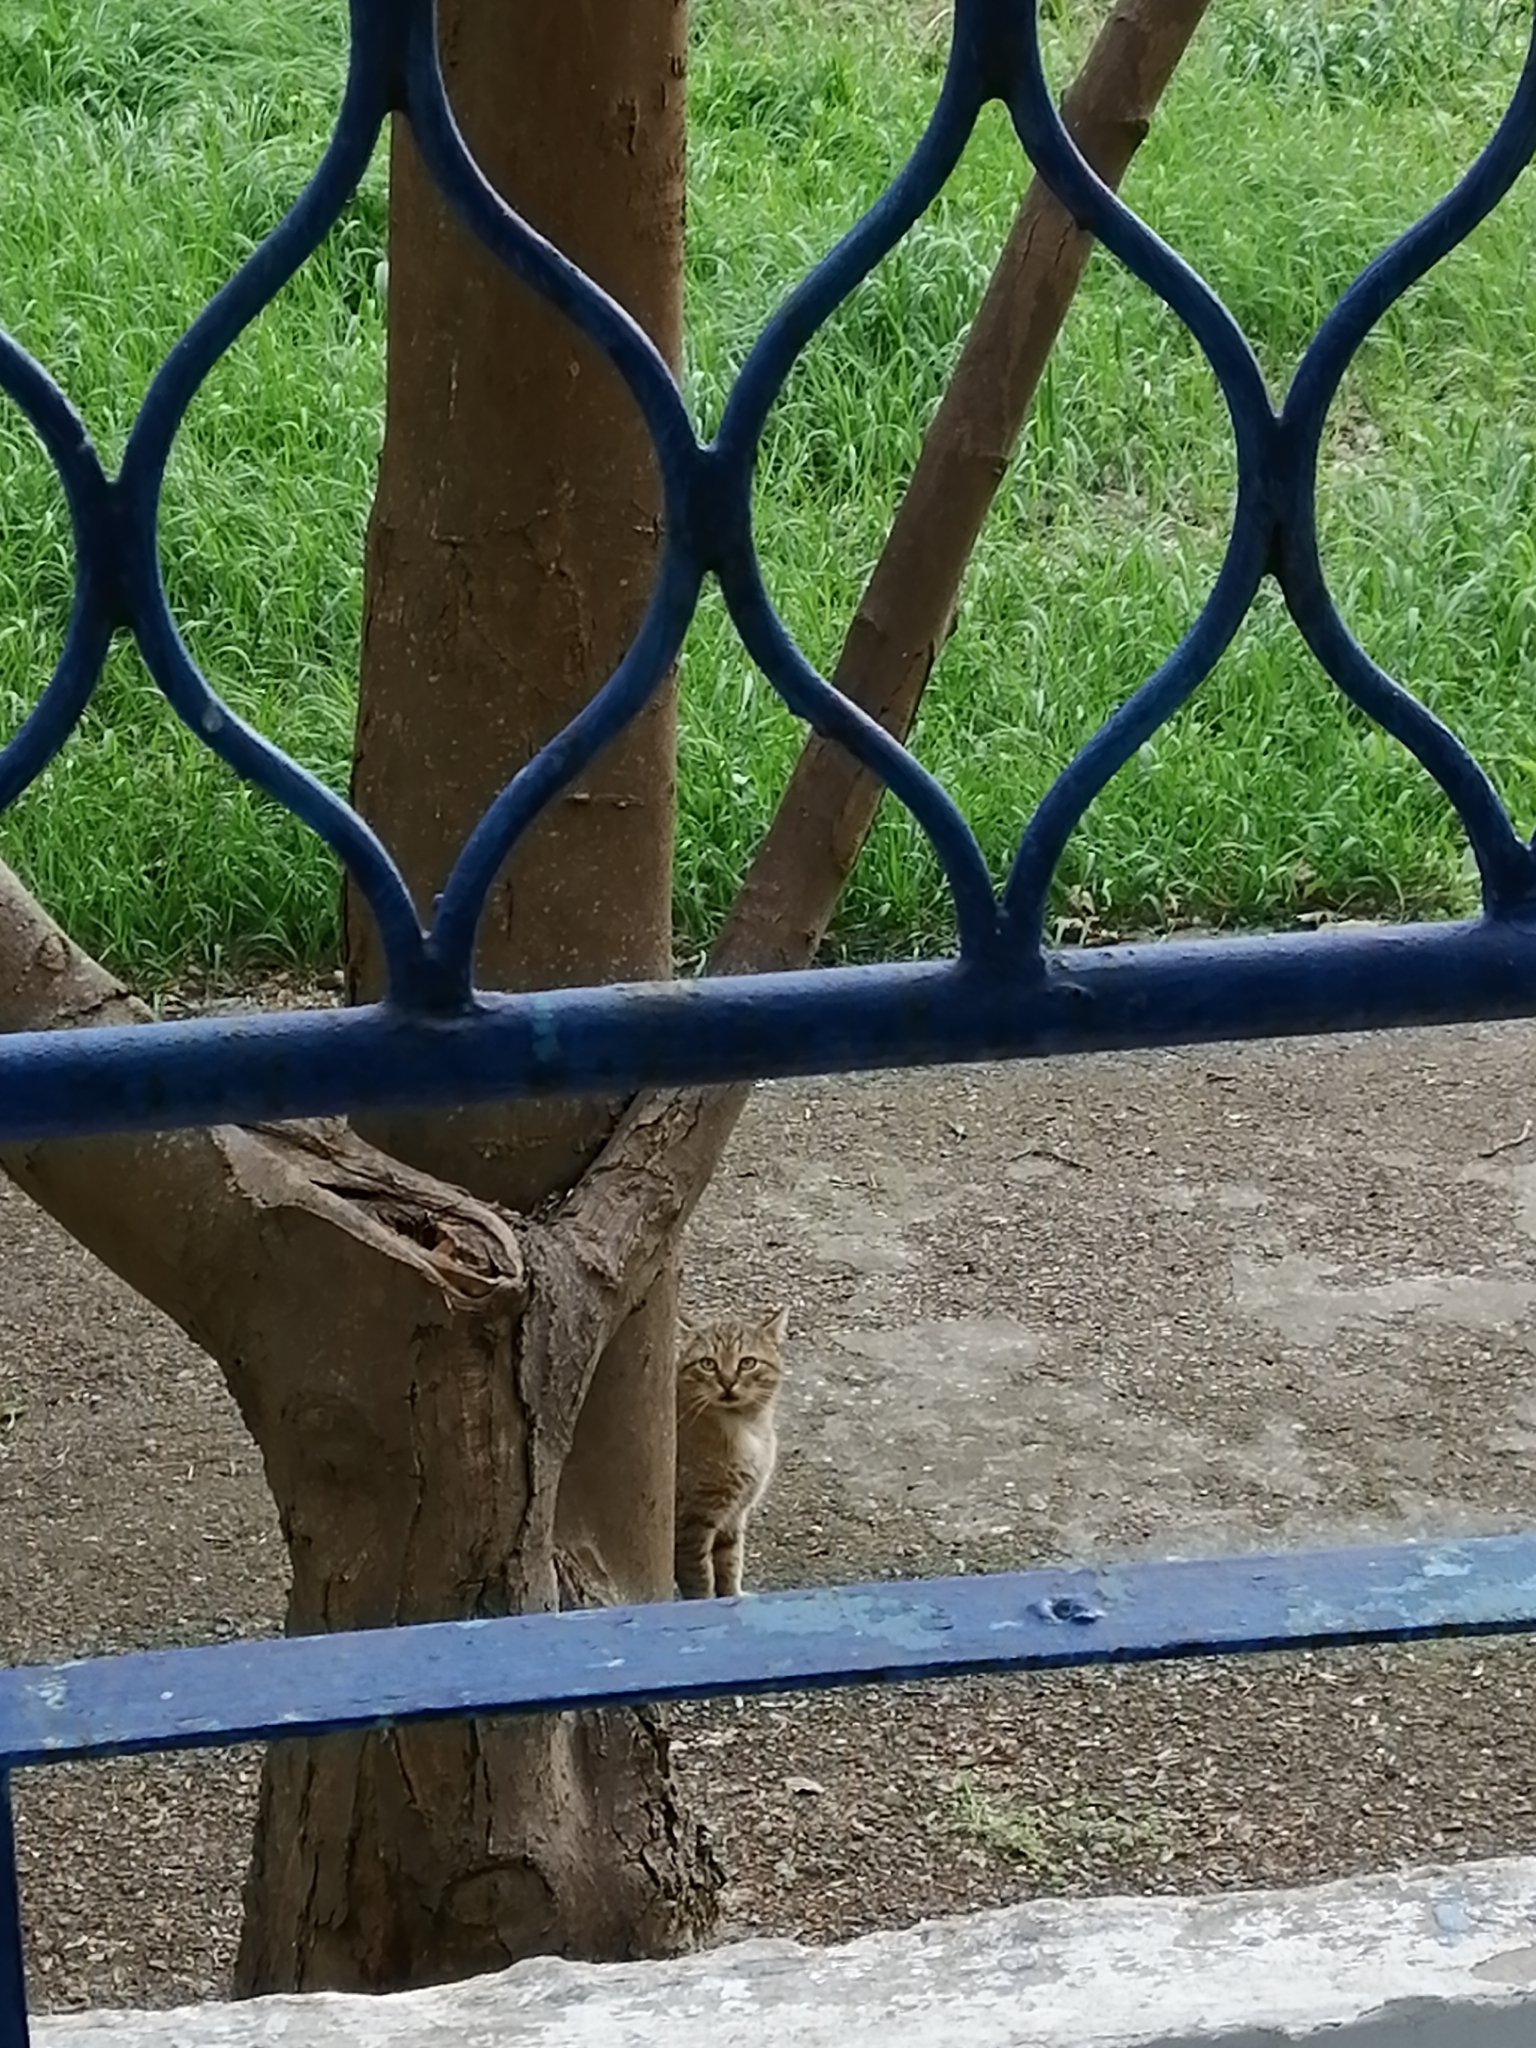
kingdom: Animalia
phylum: Chordata
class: Mammalia
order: Carnivora
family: Felidae
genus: Felis
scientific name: Felis catus
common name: Domestic cat
